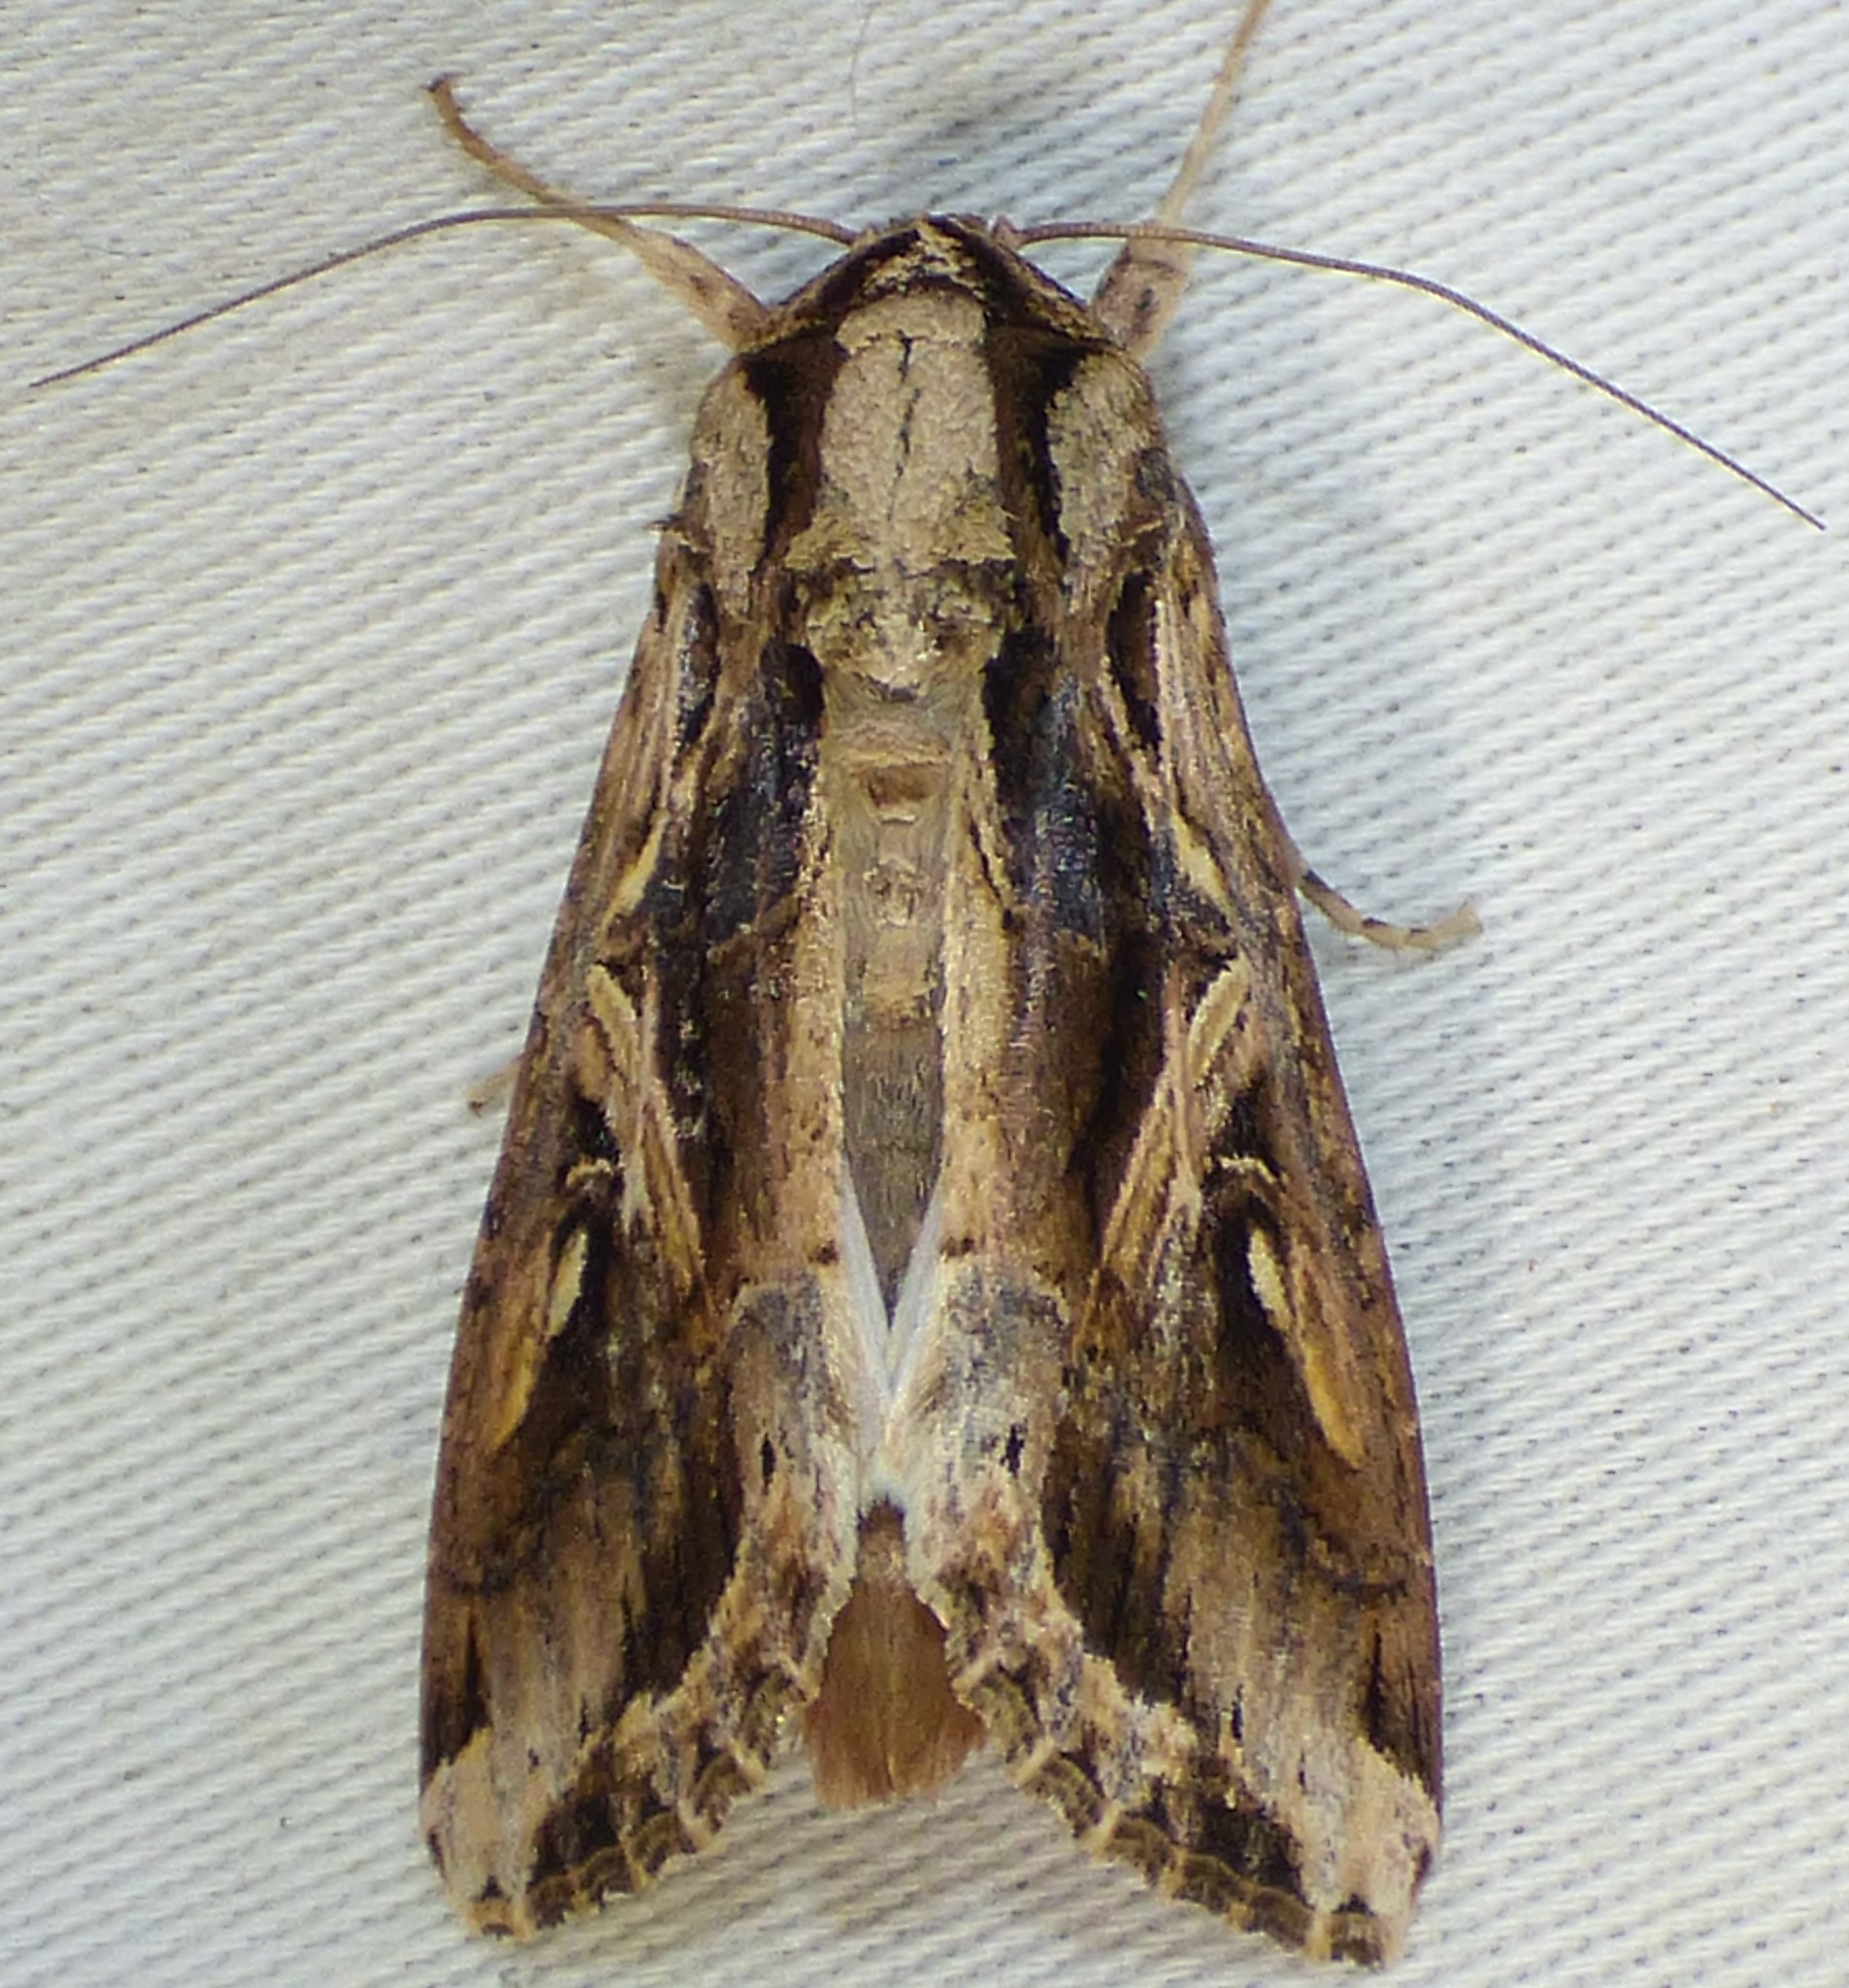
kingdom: Animalia
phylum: Arthropoda
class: Insecta
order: Lepidoptera
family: Noctuidae
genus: Spodoptera
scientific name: Spodoptera dolichos
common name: Sweetpotato armyworm
